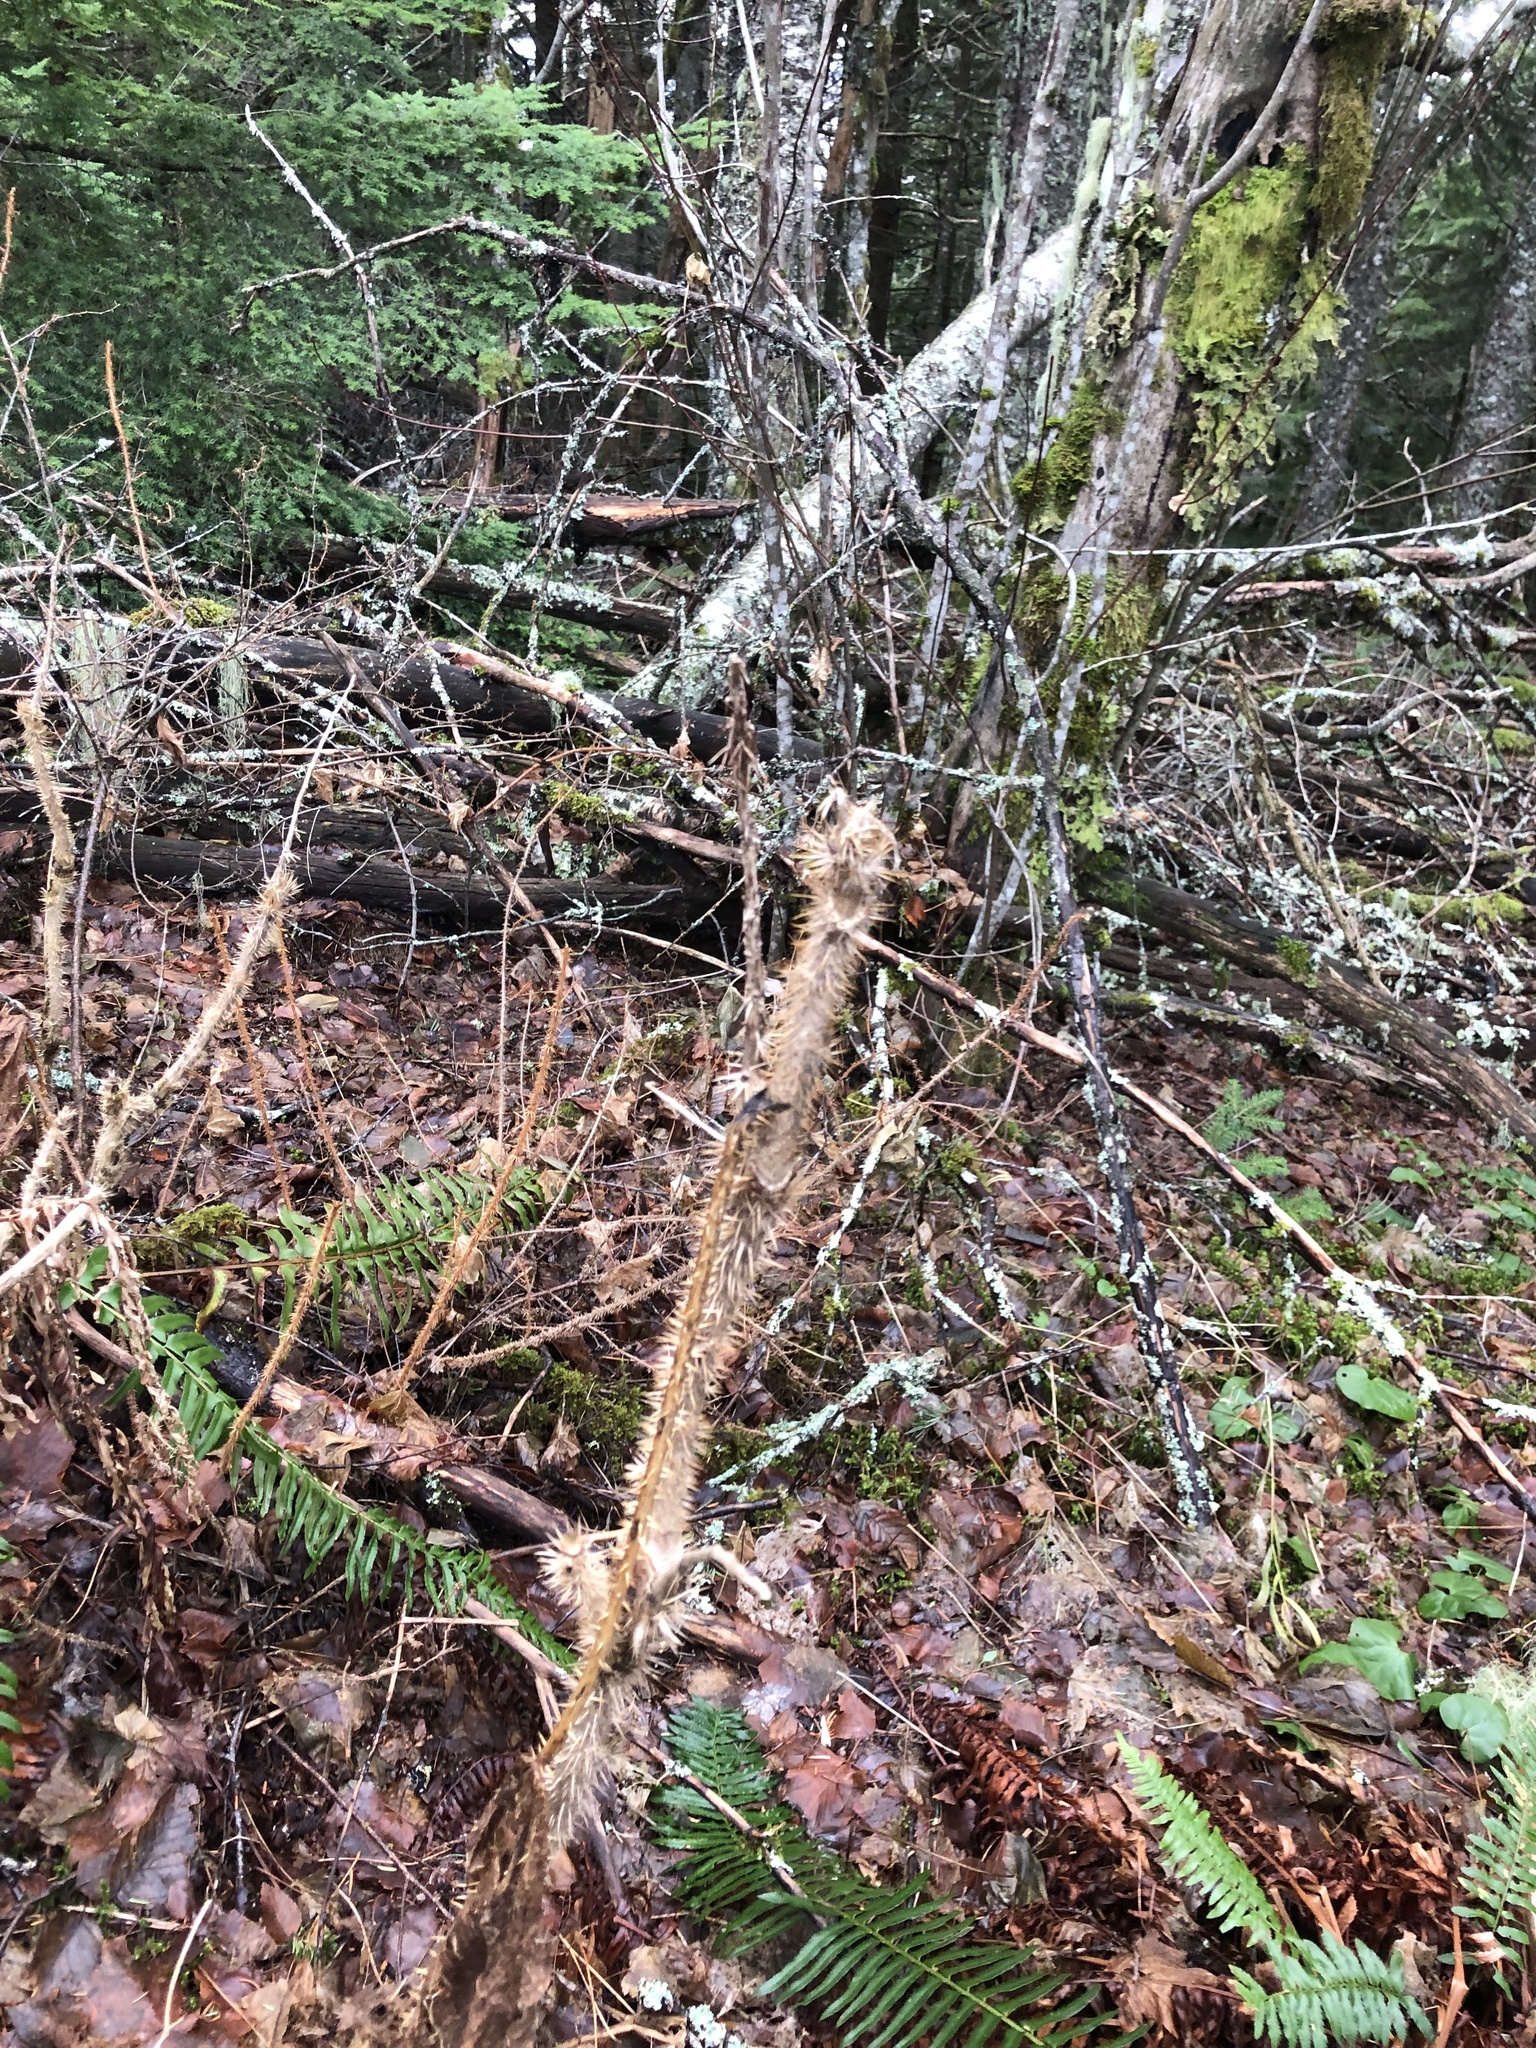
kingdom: Plantae
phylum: Tracheophyta
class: Magnoliopsida
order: Apiales
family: Araliaceae
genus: Oplopanax
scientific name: Oplopanax horridus
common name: Devil's walking-stick
